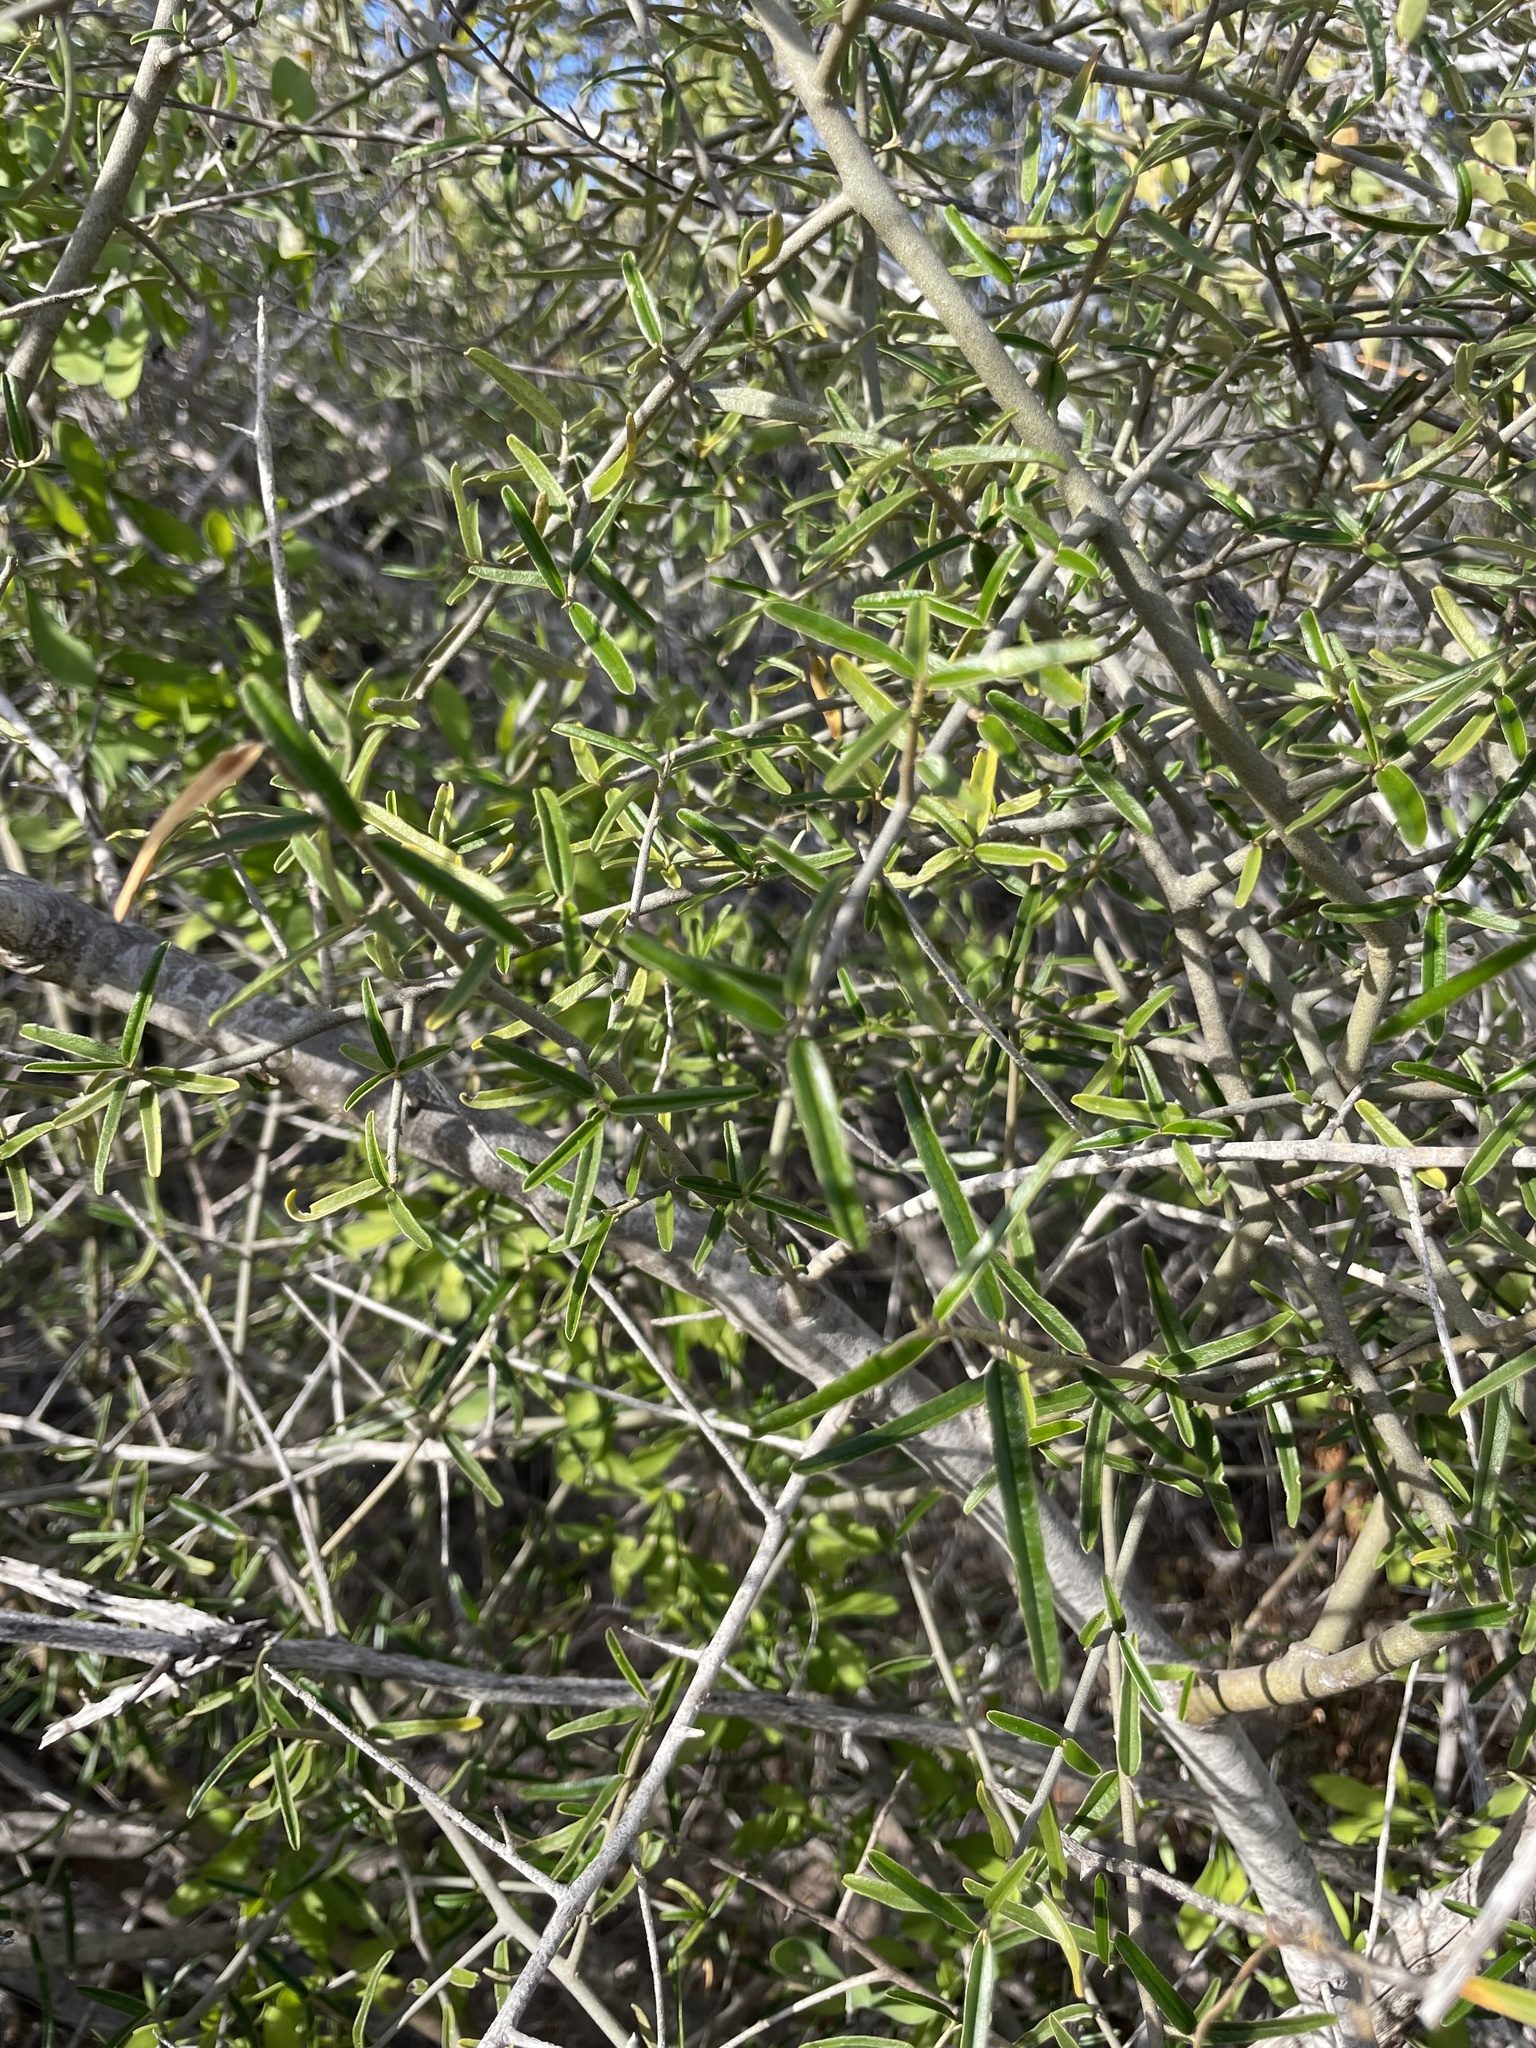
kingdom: Plantae
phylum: Tracheophyta
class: Magnoliopsida
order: Brassicales
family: Capparaceae
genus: Atamisquea
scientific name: Atamisquea emarginata
